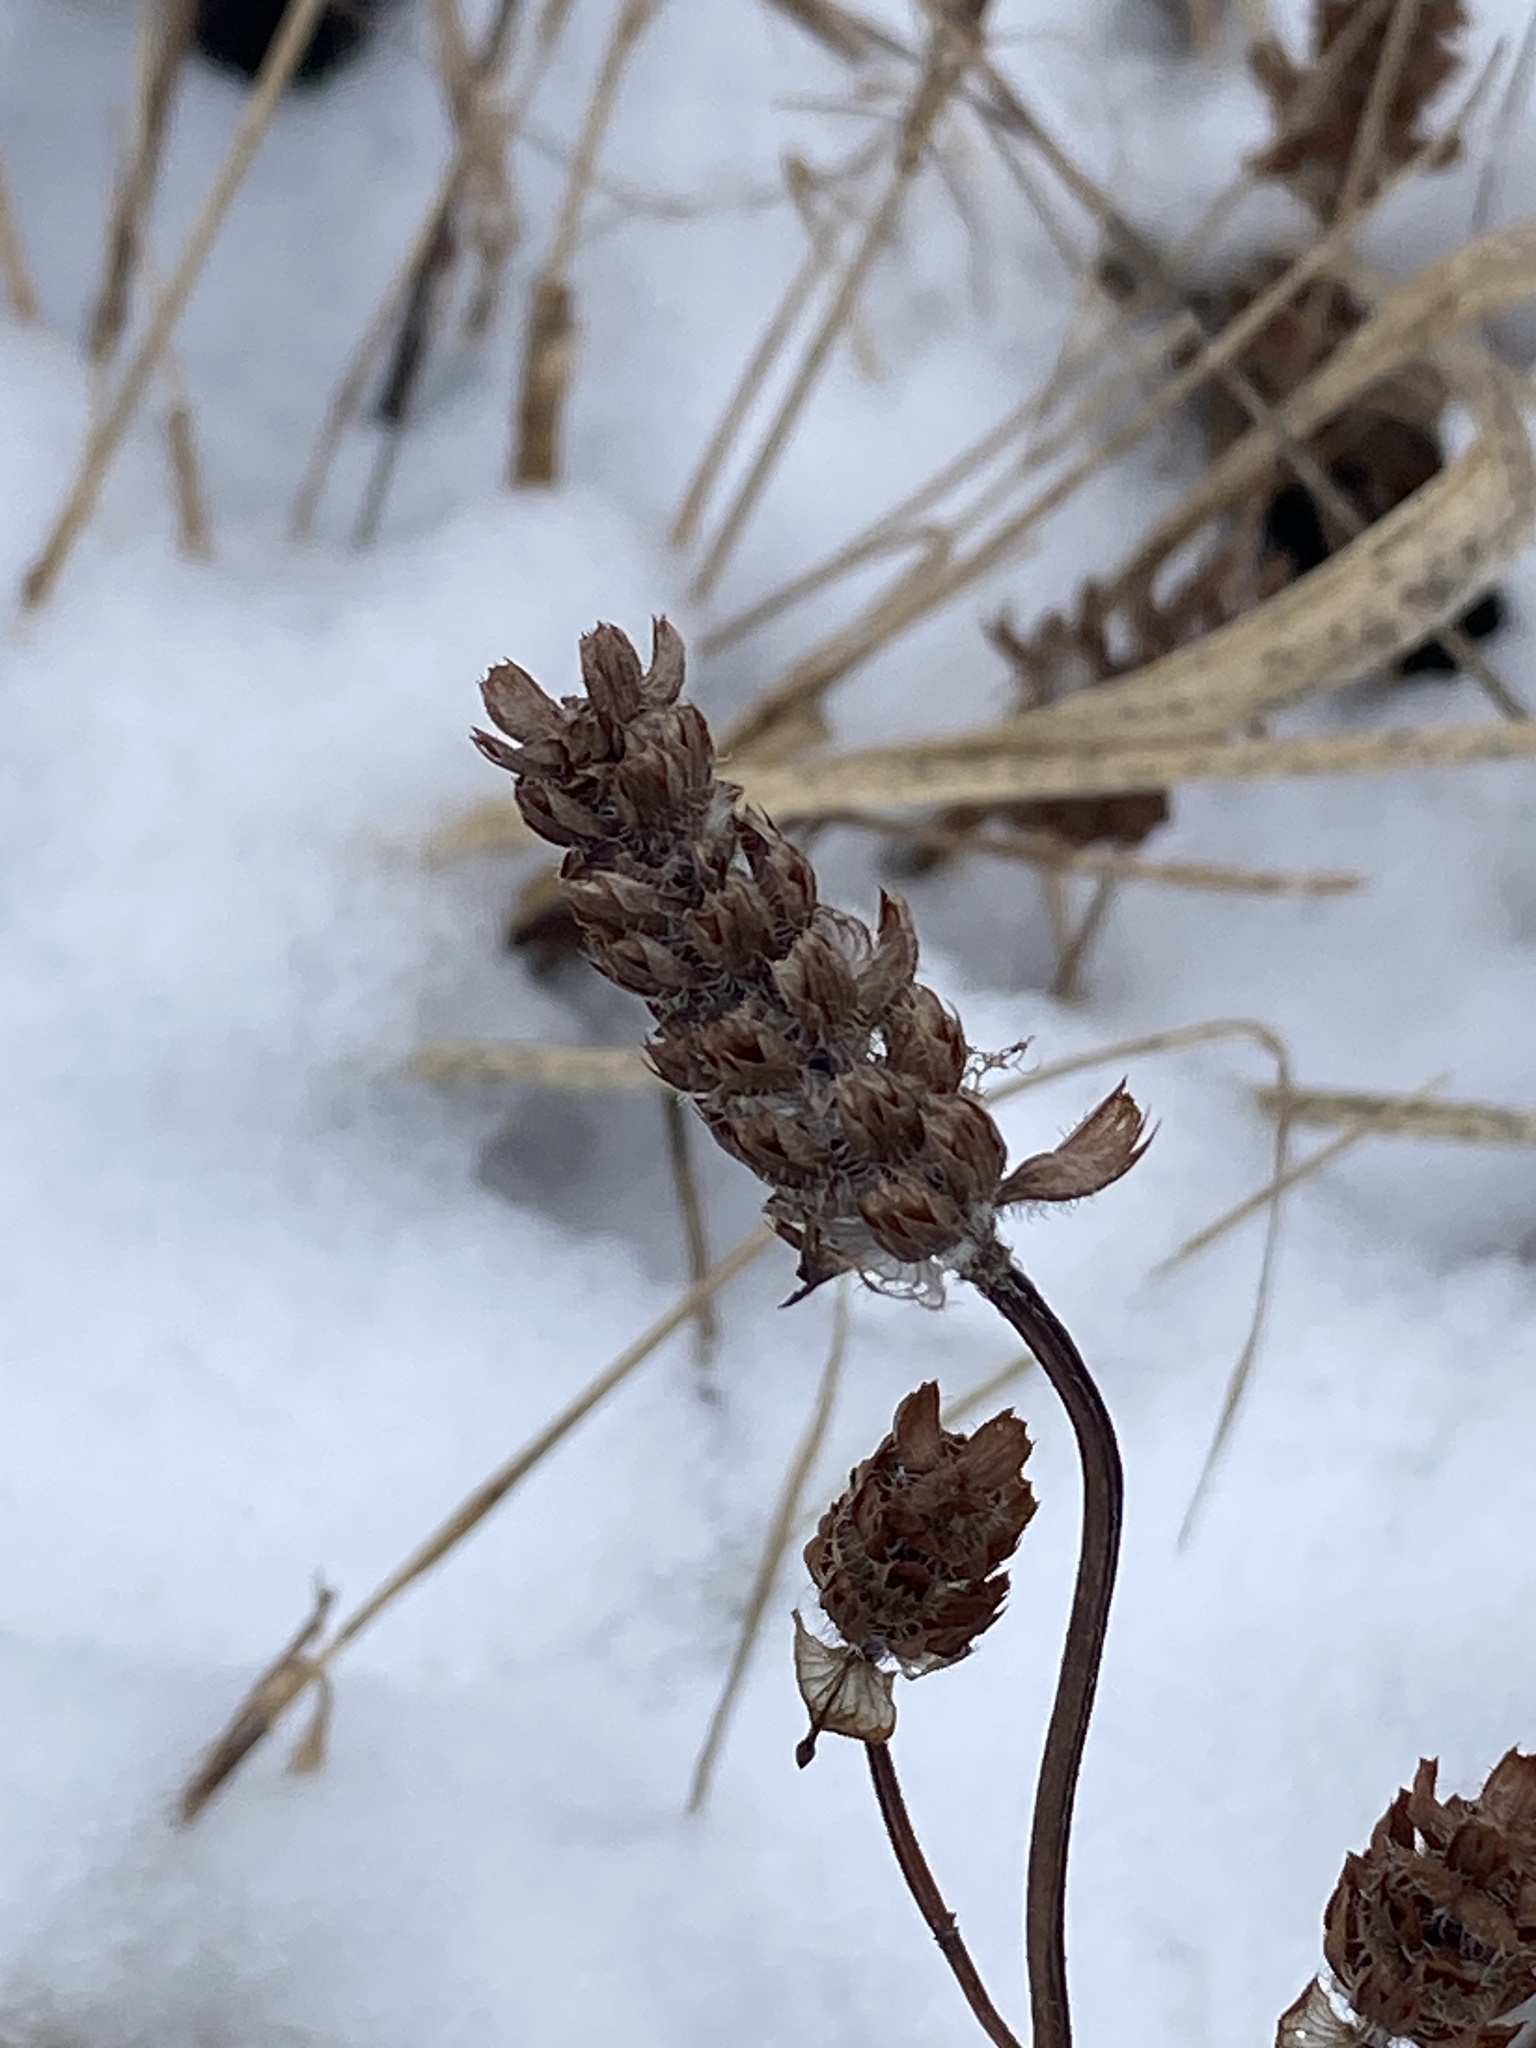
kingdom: Plantae
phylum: Tracheophyta
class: Magnoliopsida
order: Lamiales
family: Lamiaceae
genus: Prunella
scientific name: Prunella vulgaris
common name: Heal-all
